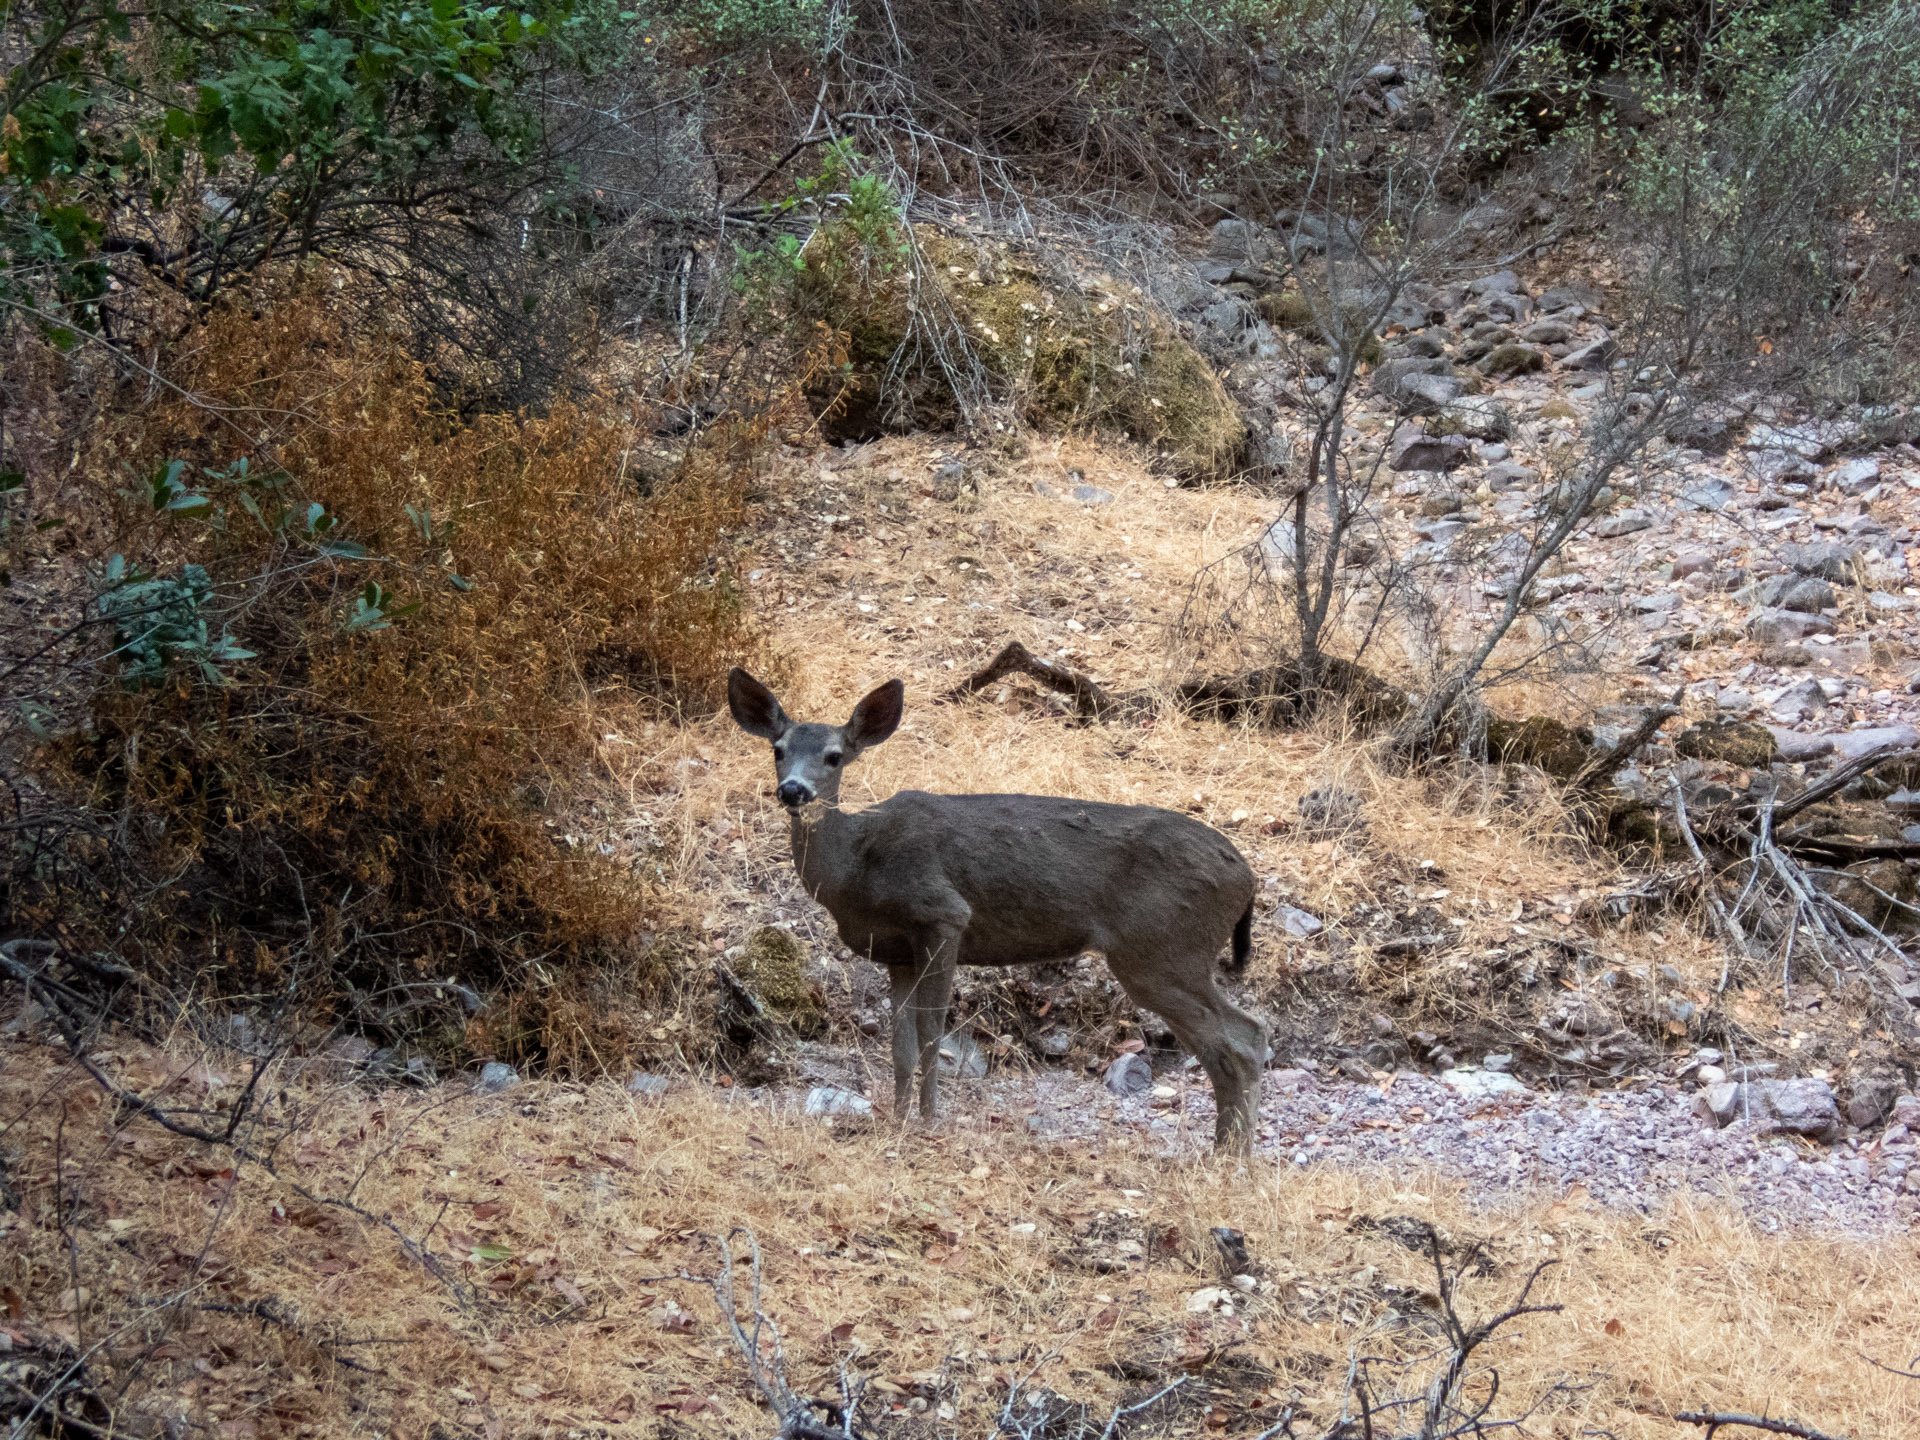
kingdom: Animalia
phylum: Chordata
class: Mammalia
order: Artiodactyla
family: Cervidae
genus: Odocoileus
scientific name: Odocoileus hemionus
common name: Mule deer
